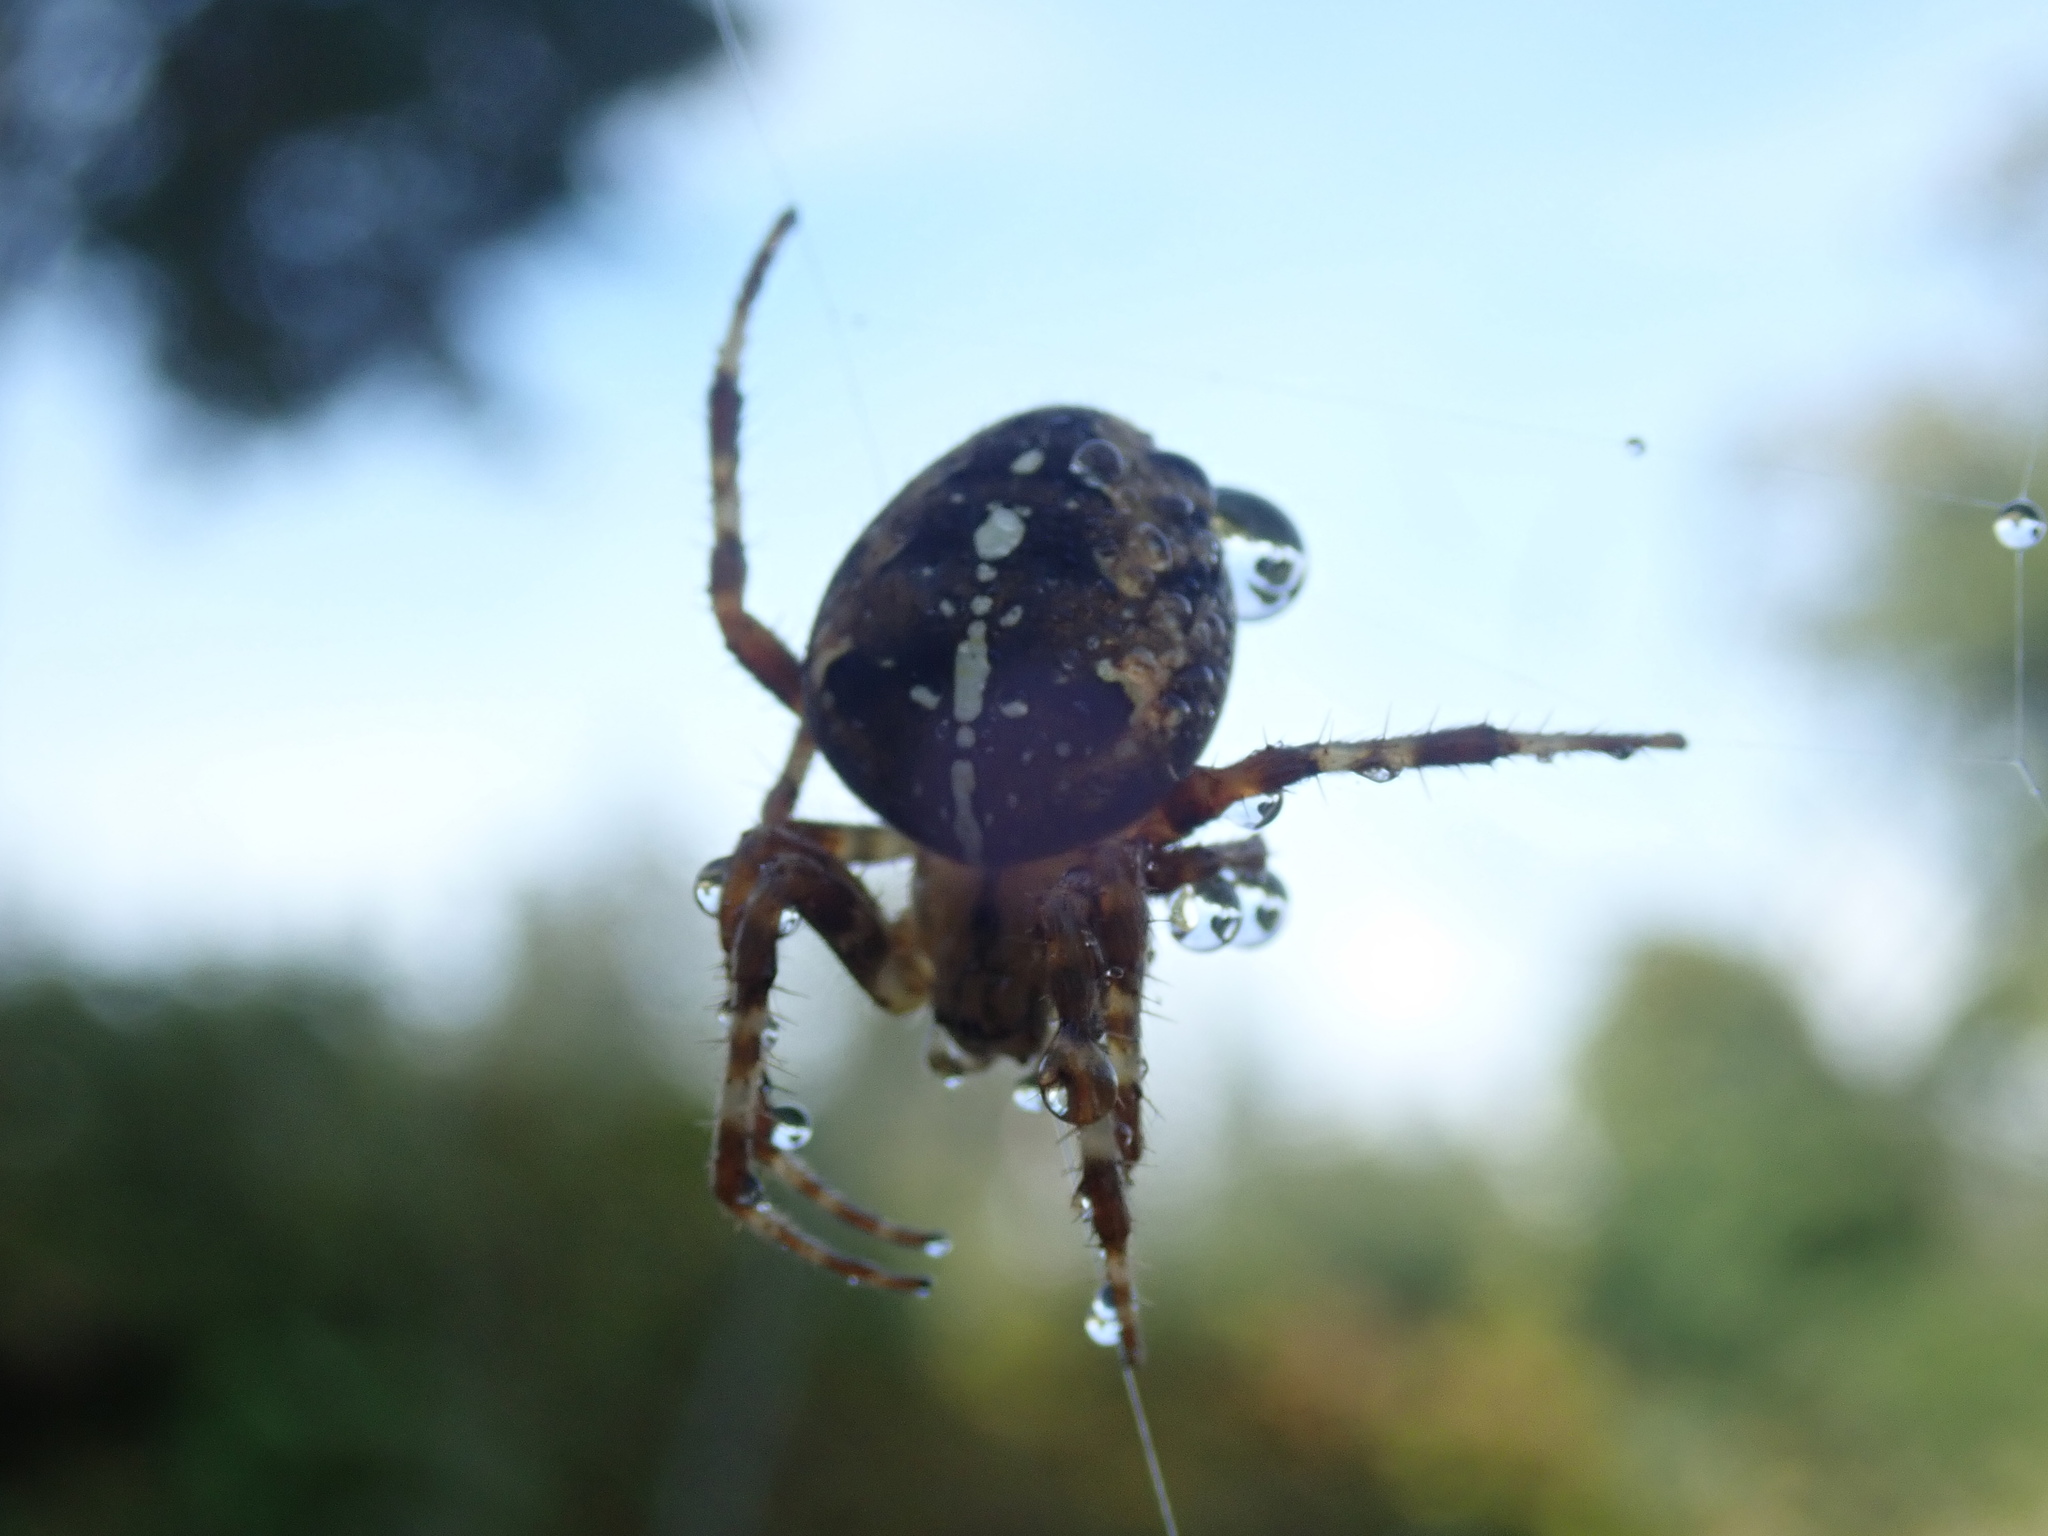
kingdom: Animalia
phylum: Arthropoda
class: Arachnida
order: Araneae
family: Araneidae
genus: Araneus
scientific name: Araneus diadematus
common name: Cross orbweaver
